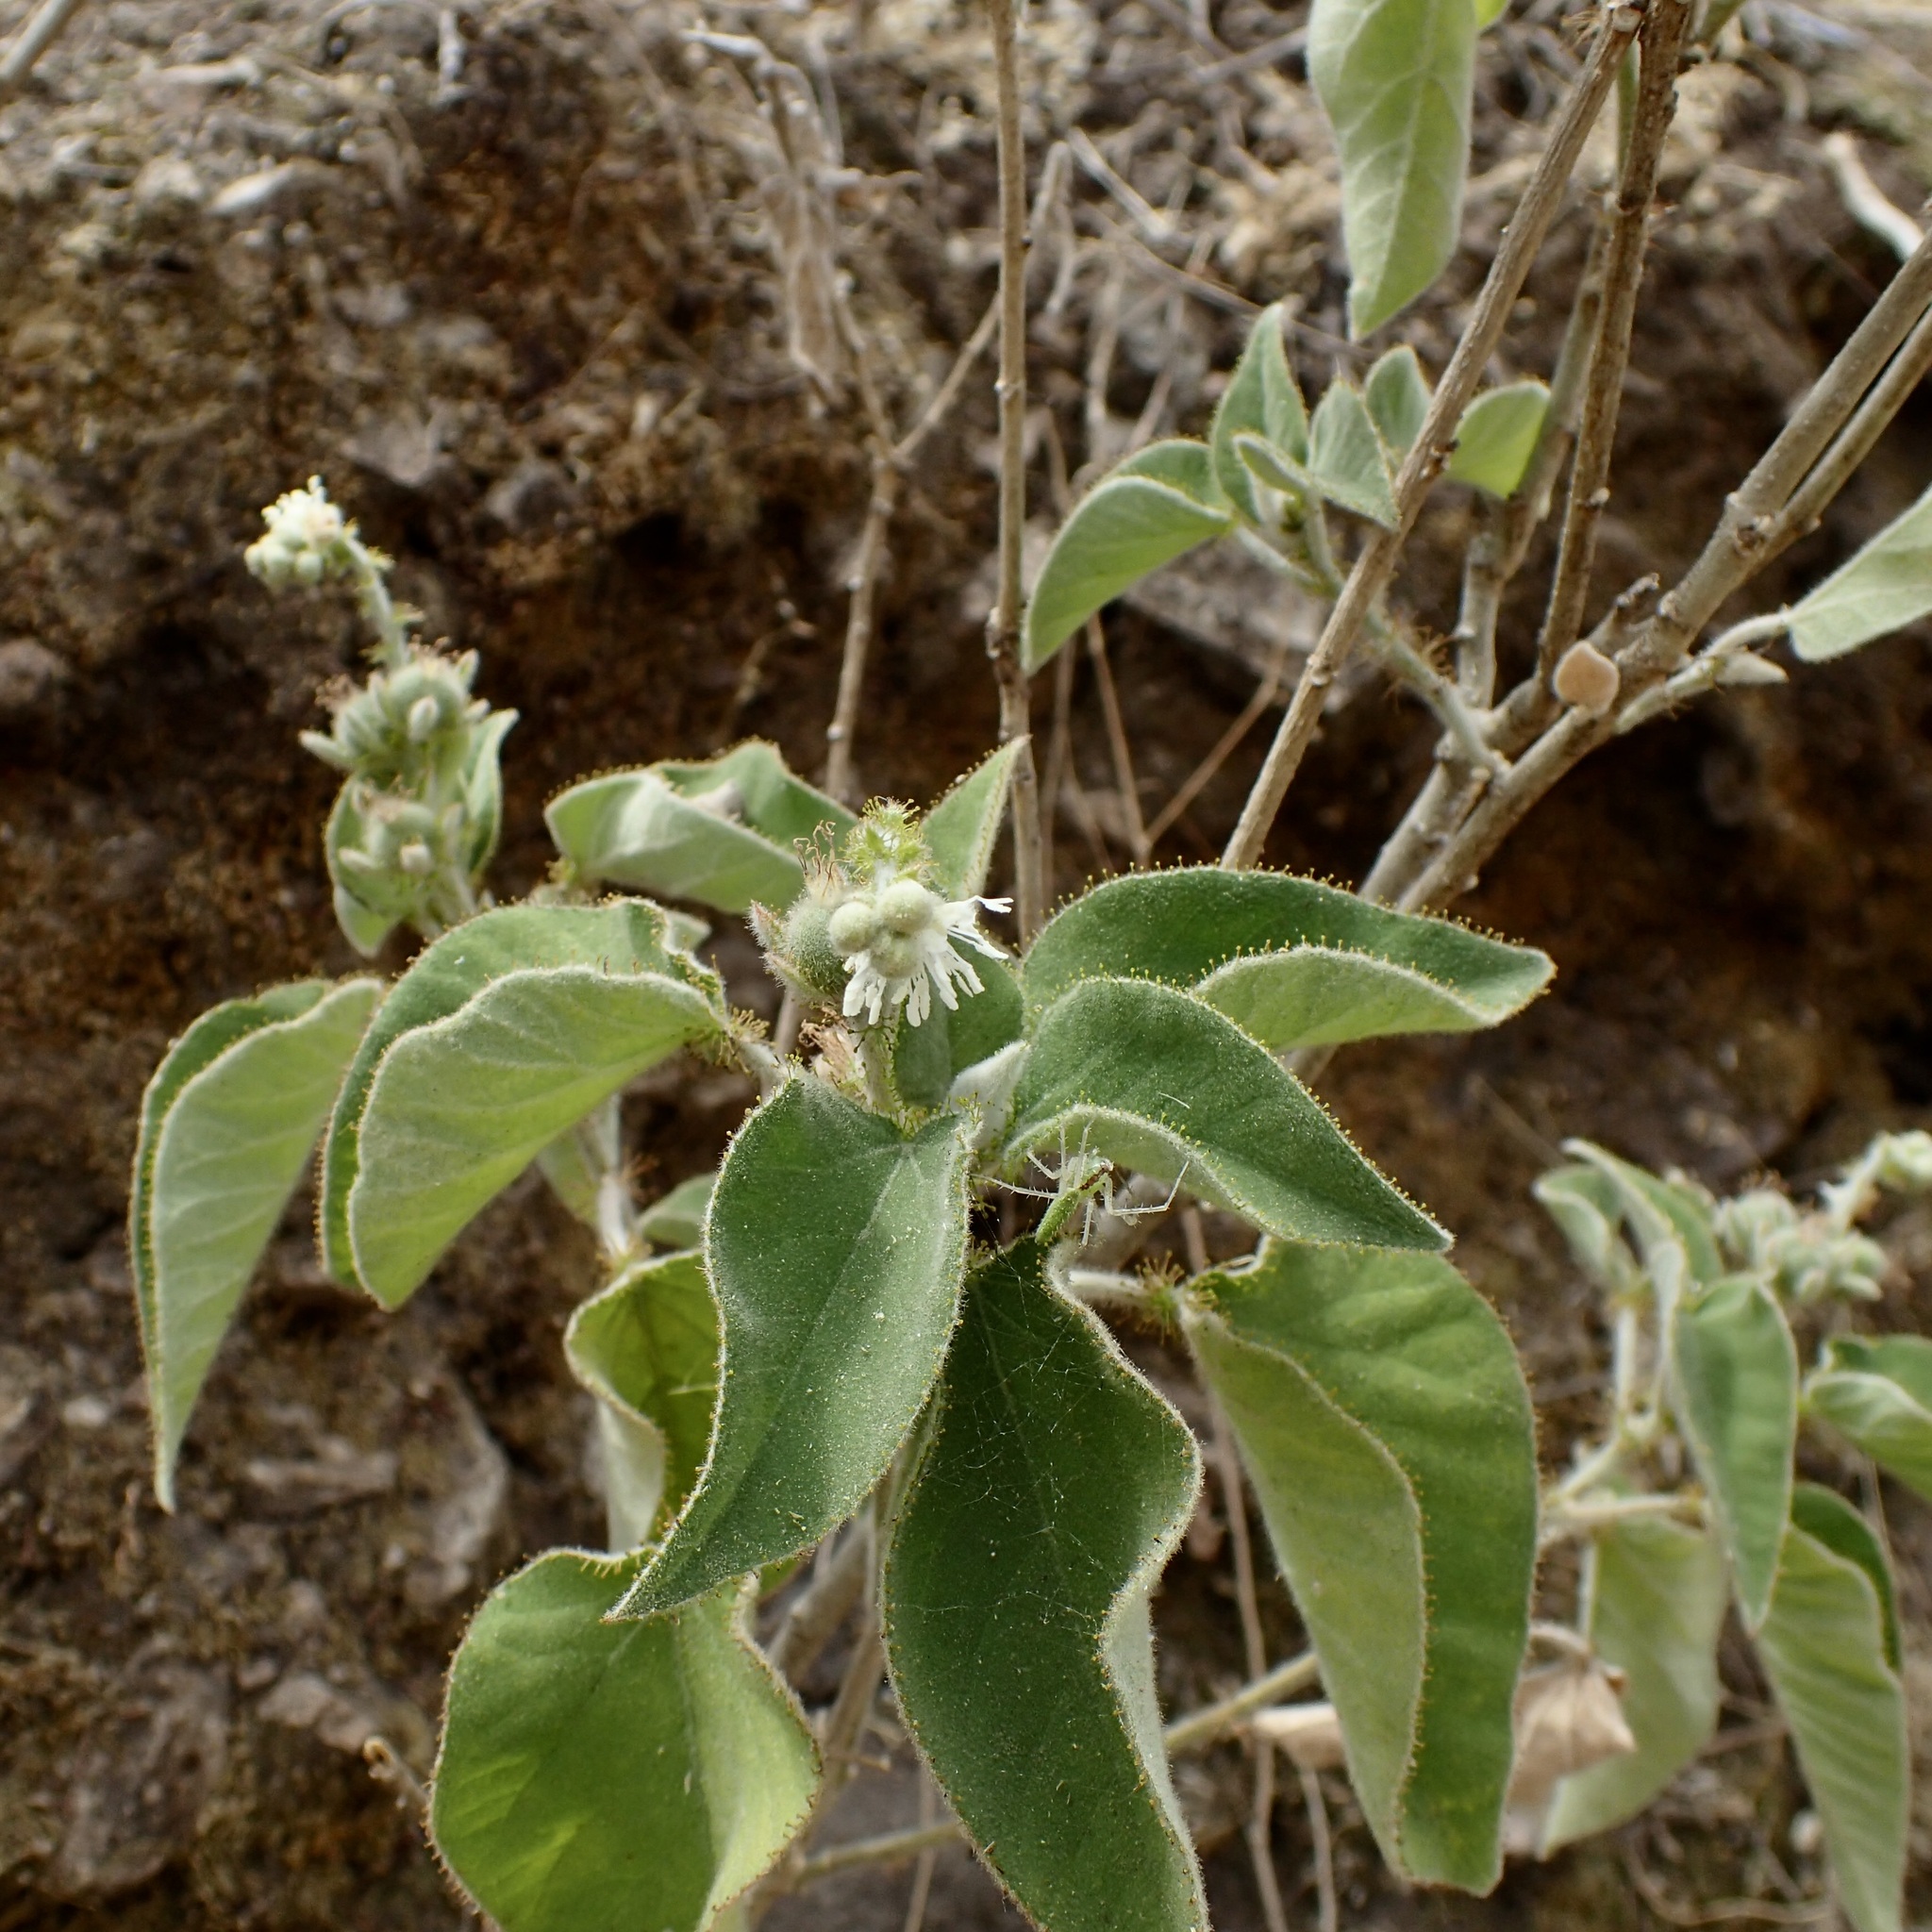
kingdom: Plantae
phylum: Tracheophyta
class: Magnoliopsida
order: Malpighiales
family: Euphorbiaceae
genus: Croton
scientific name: Croton ciliatoglandulifer
